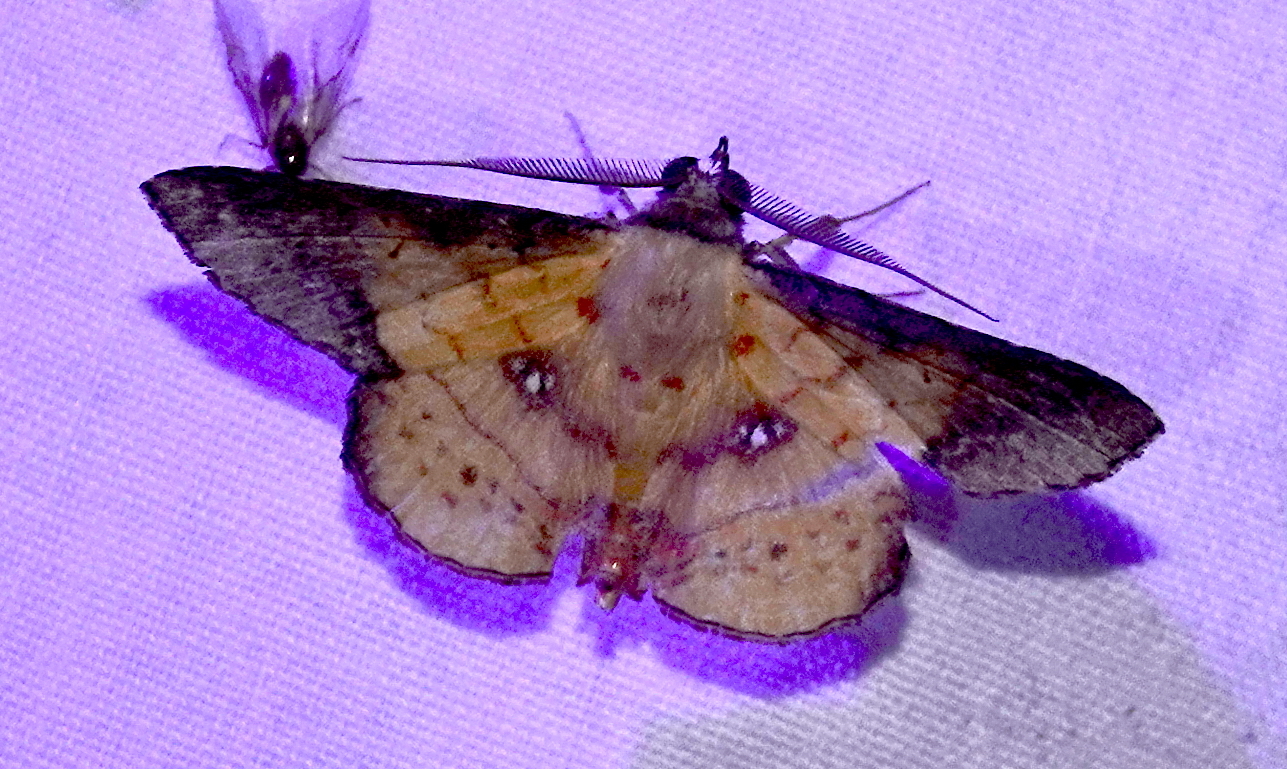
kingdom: Animalia
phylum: Arthropoda
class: Insecta
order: Lepidoptera
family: Erebidae
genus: Cryptochrostis
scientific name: Cryptochrostis crocea
